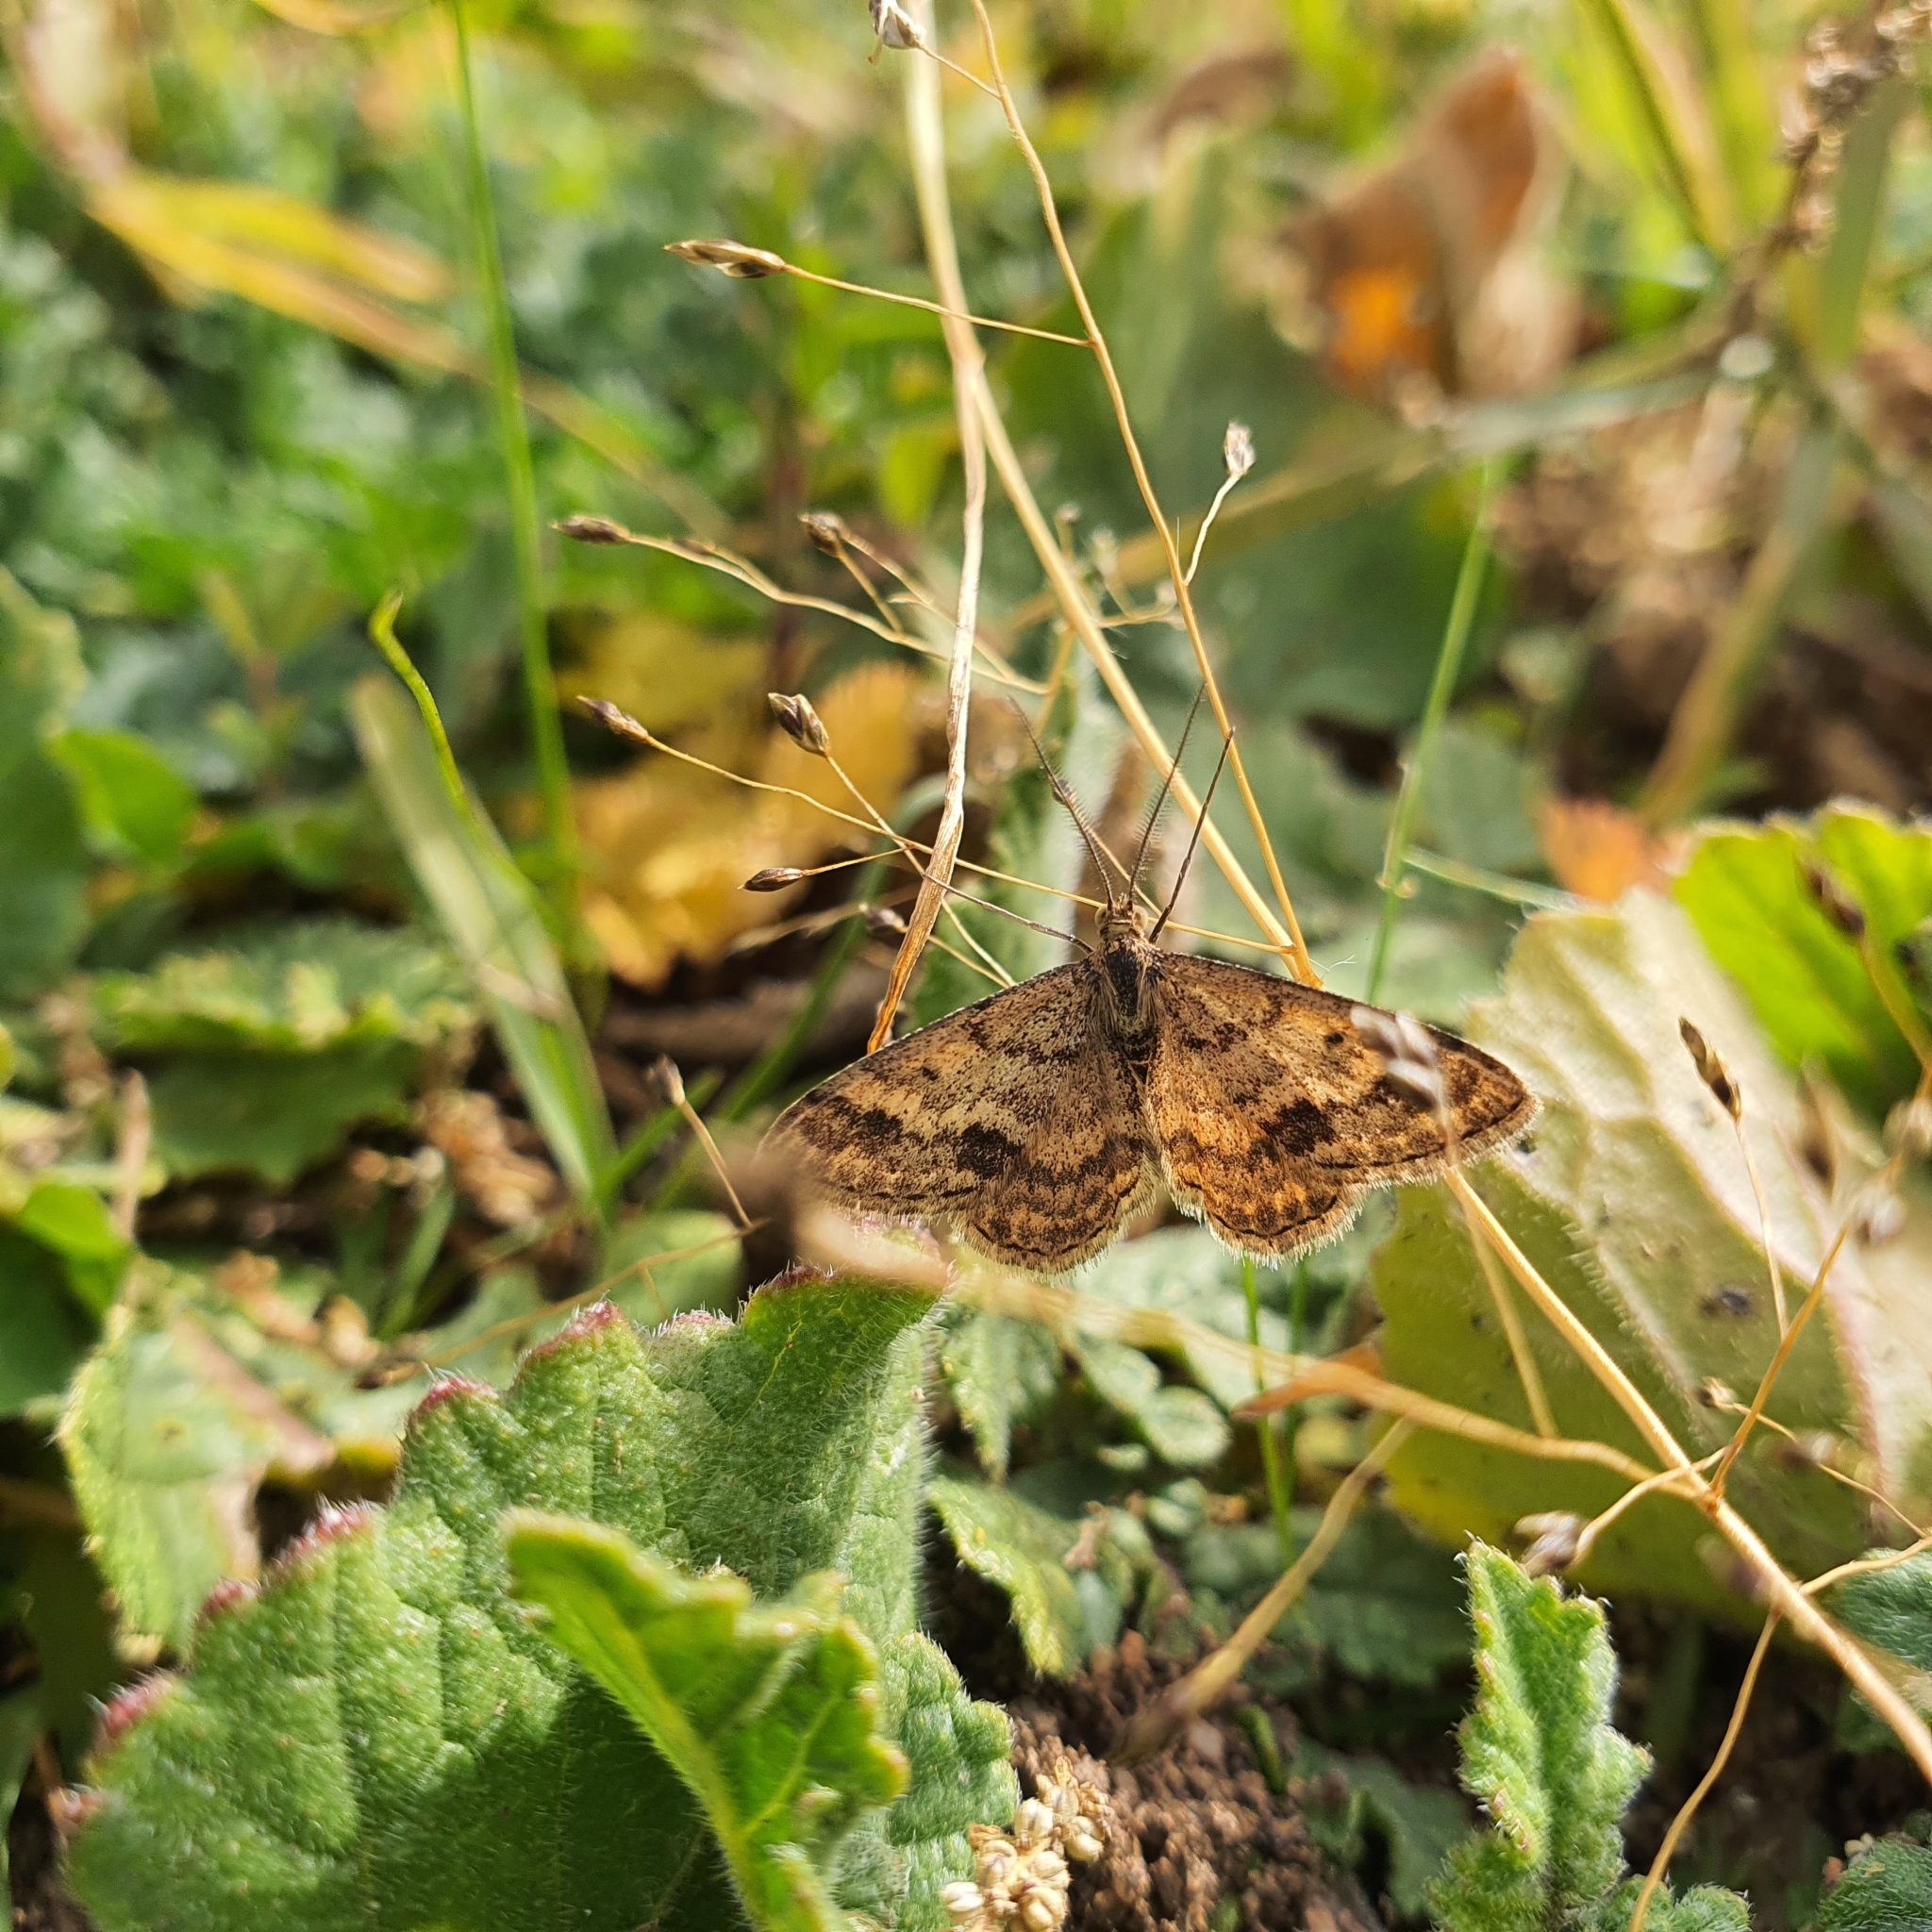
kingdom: Animalia
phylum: Arthropoda
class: Insecta
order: Lepidoptera
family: Geometridae
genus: Scopula
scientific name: Scopula rubraria
